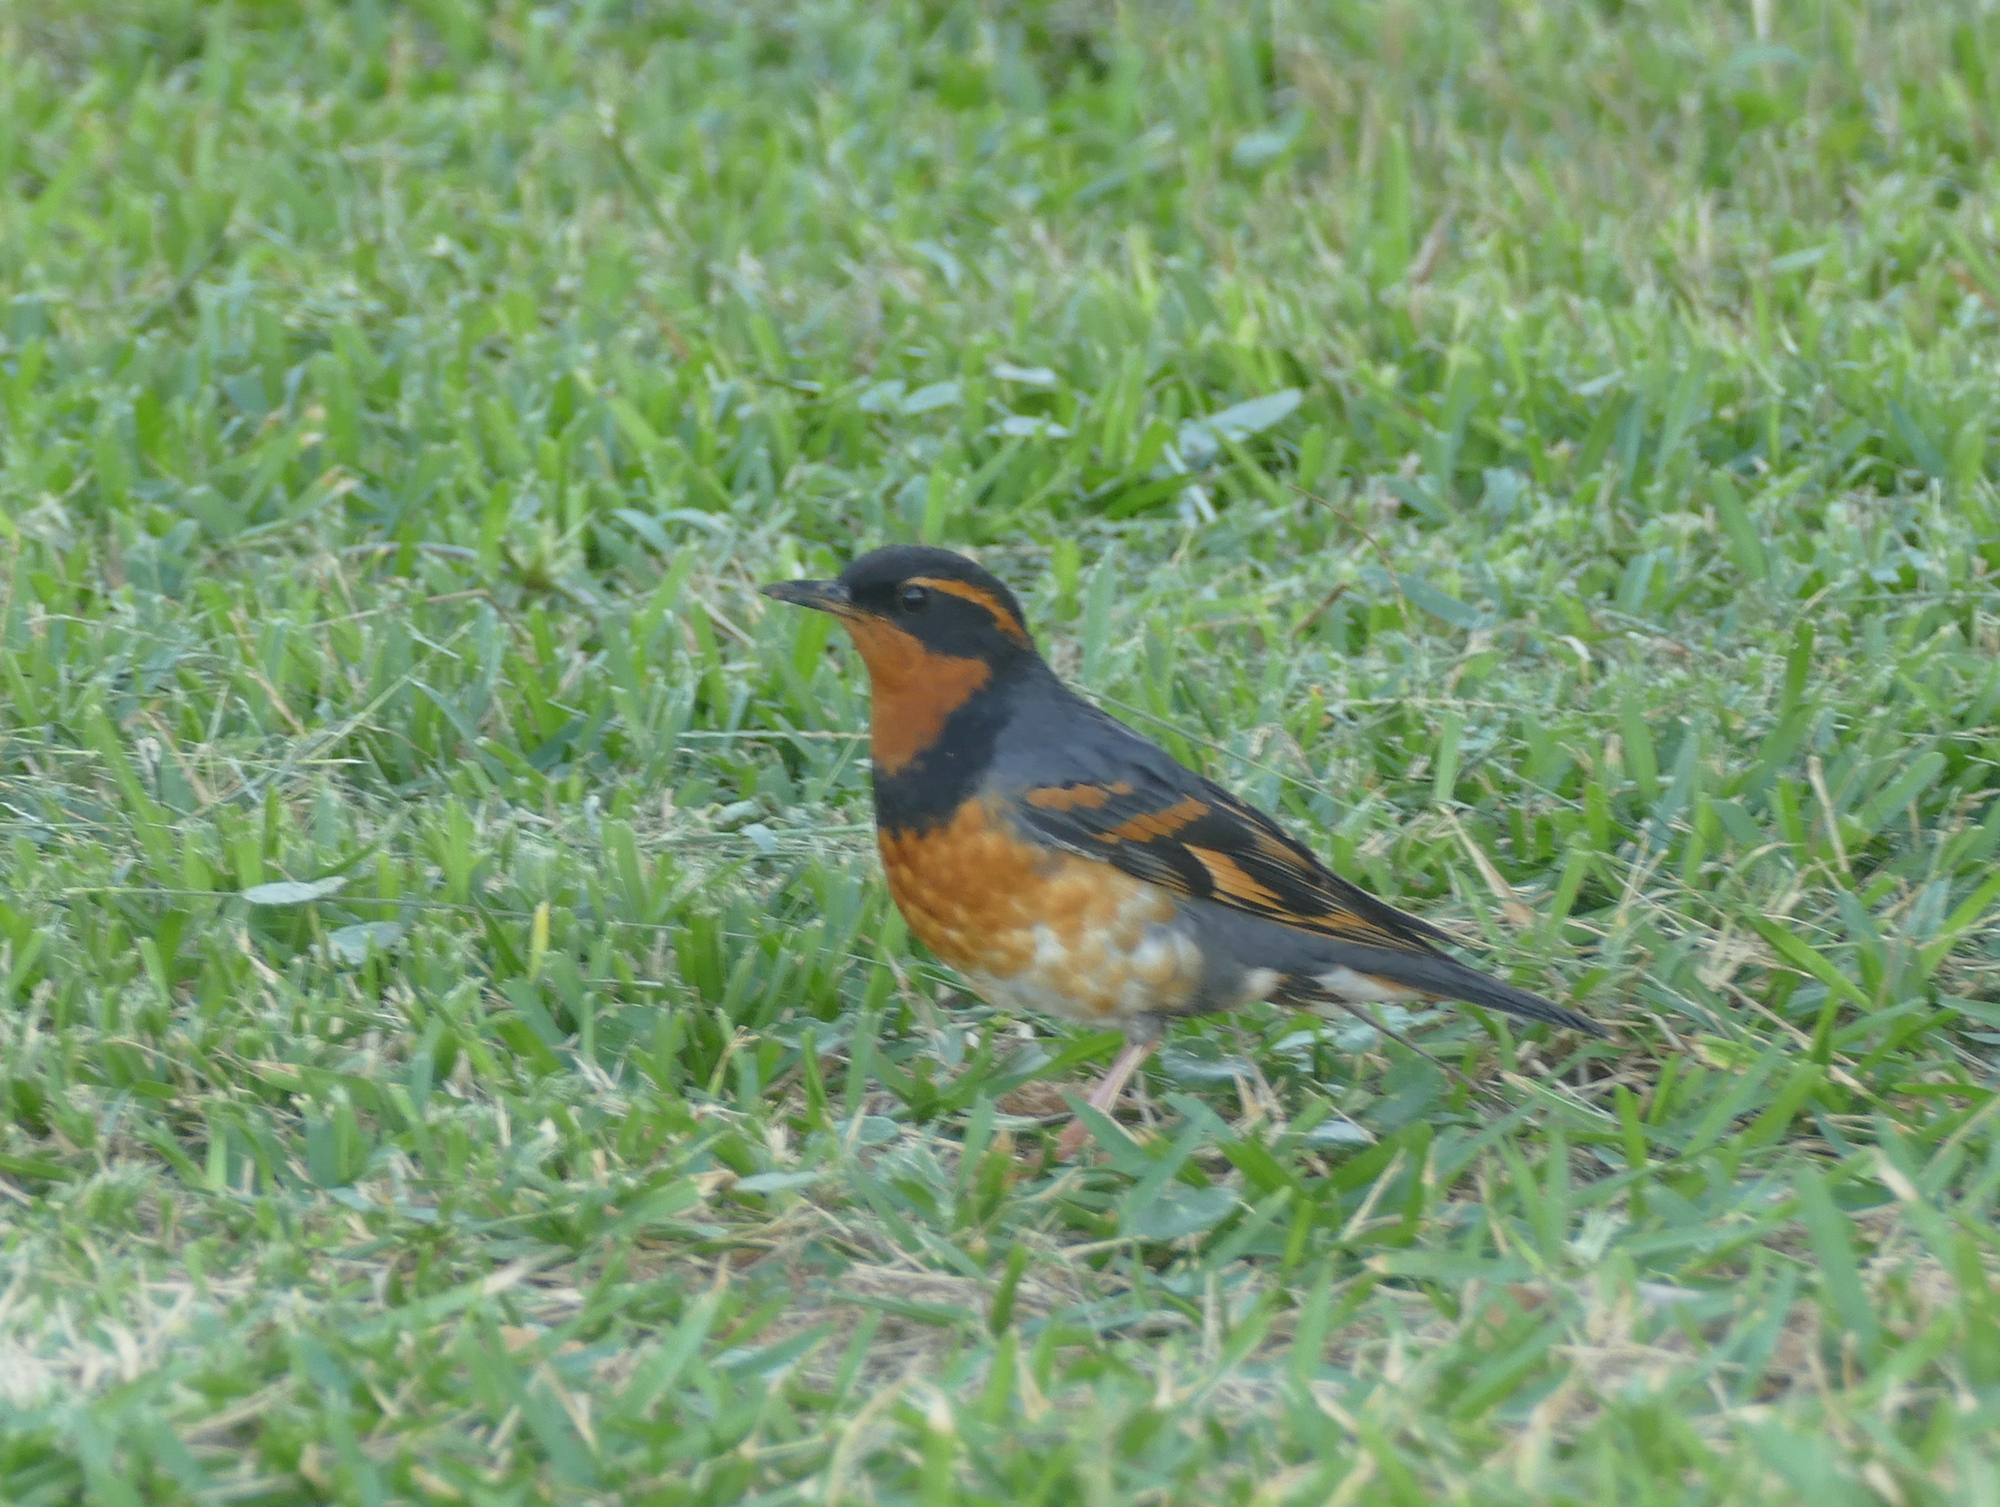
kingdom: Animalia
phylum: Chordata
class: Aves
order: Passeriformes
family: Turdidae
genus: Ixoreus
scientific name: Ixoreus naevius
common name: Varied thrush
